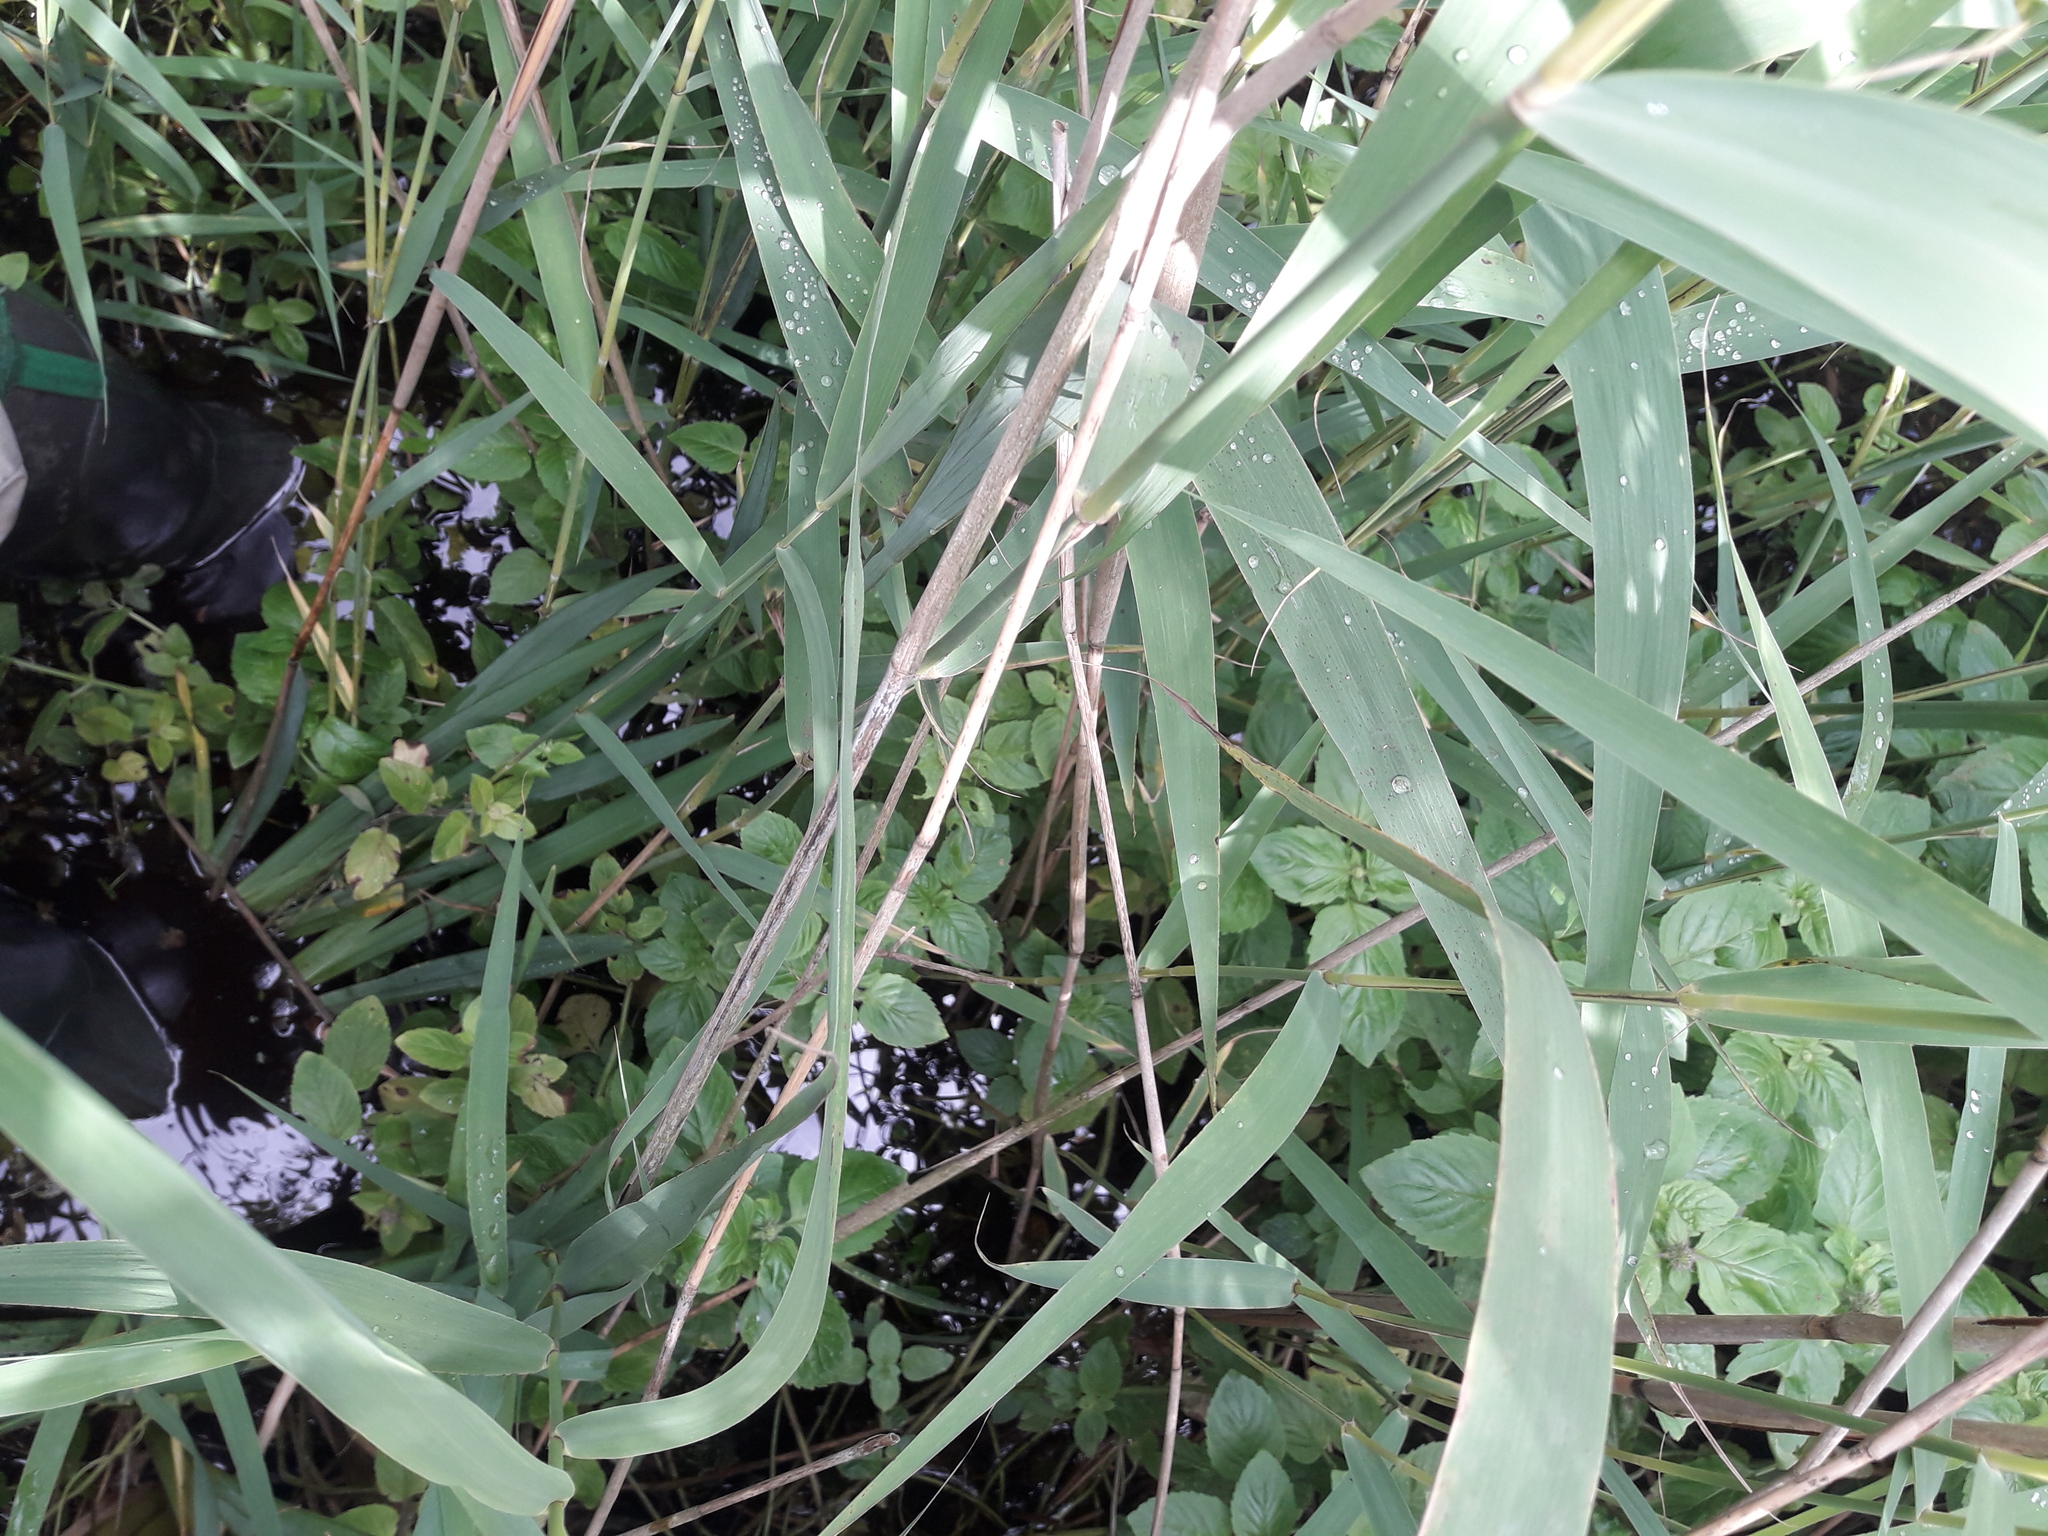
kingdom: Plantae
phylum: Tracheophyta
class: Liliopsida
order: Poales
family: Poaceae
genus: Phragmites
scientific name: Phragmites australis
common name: Common reed
